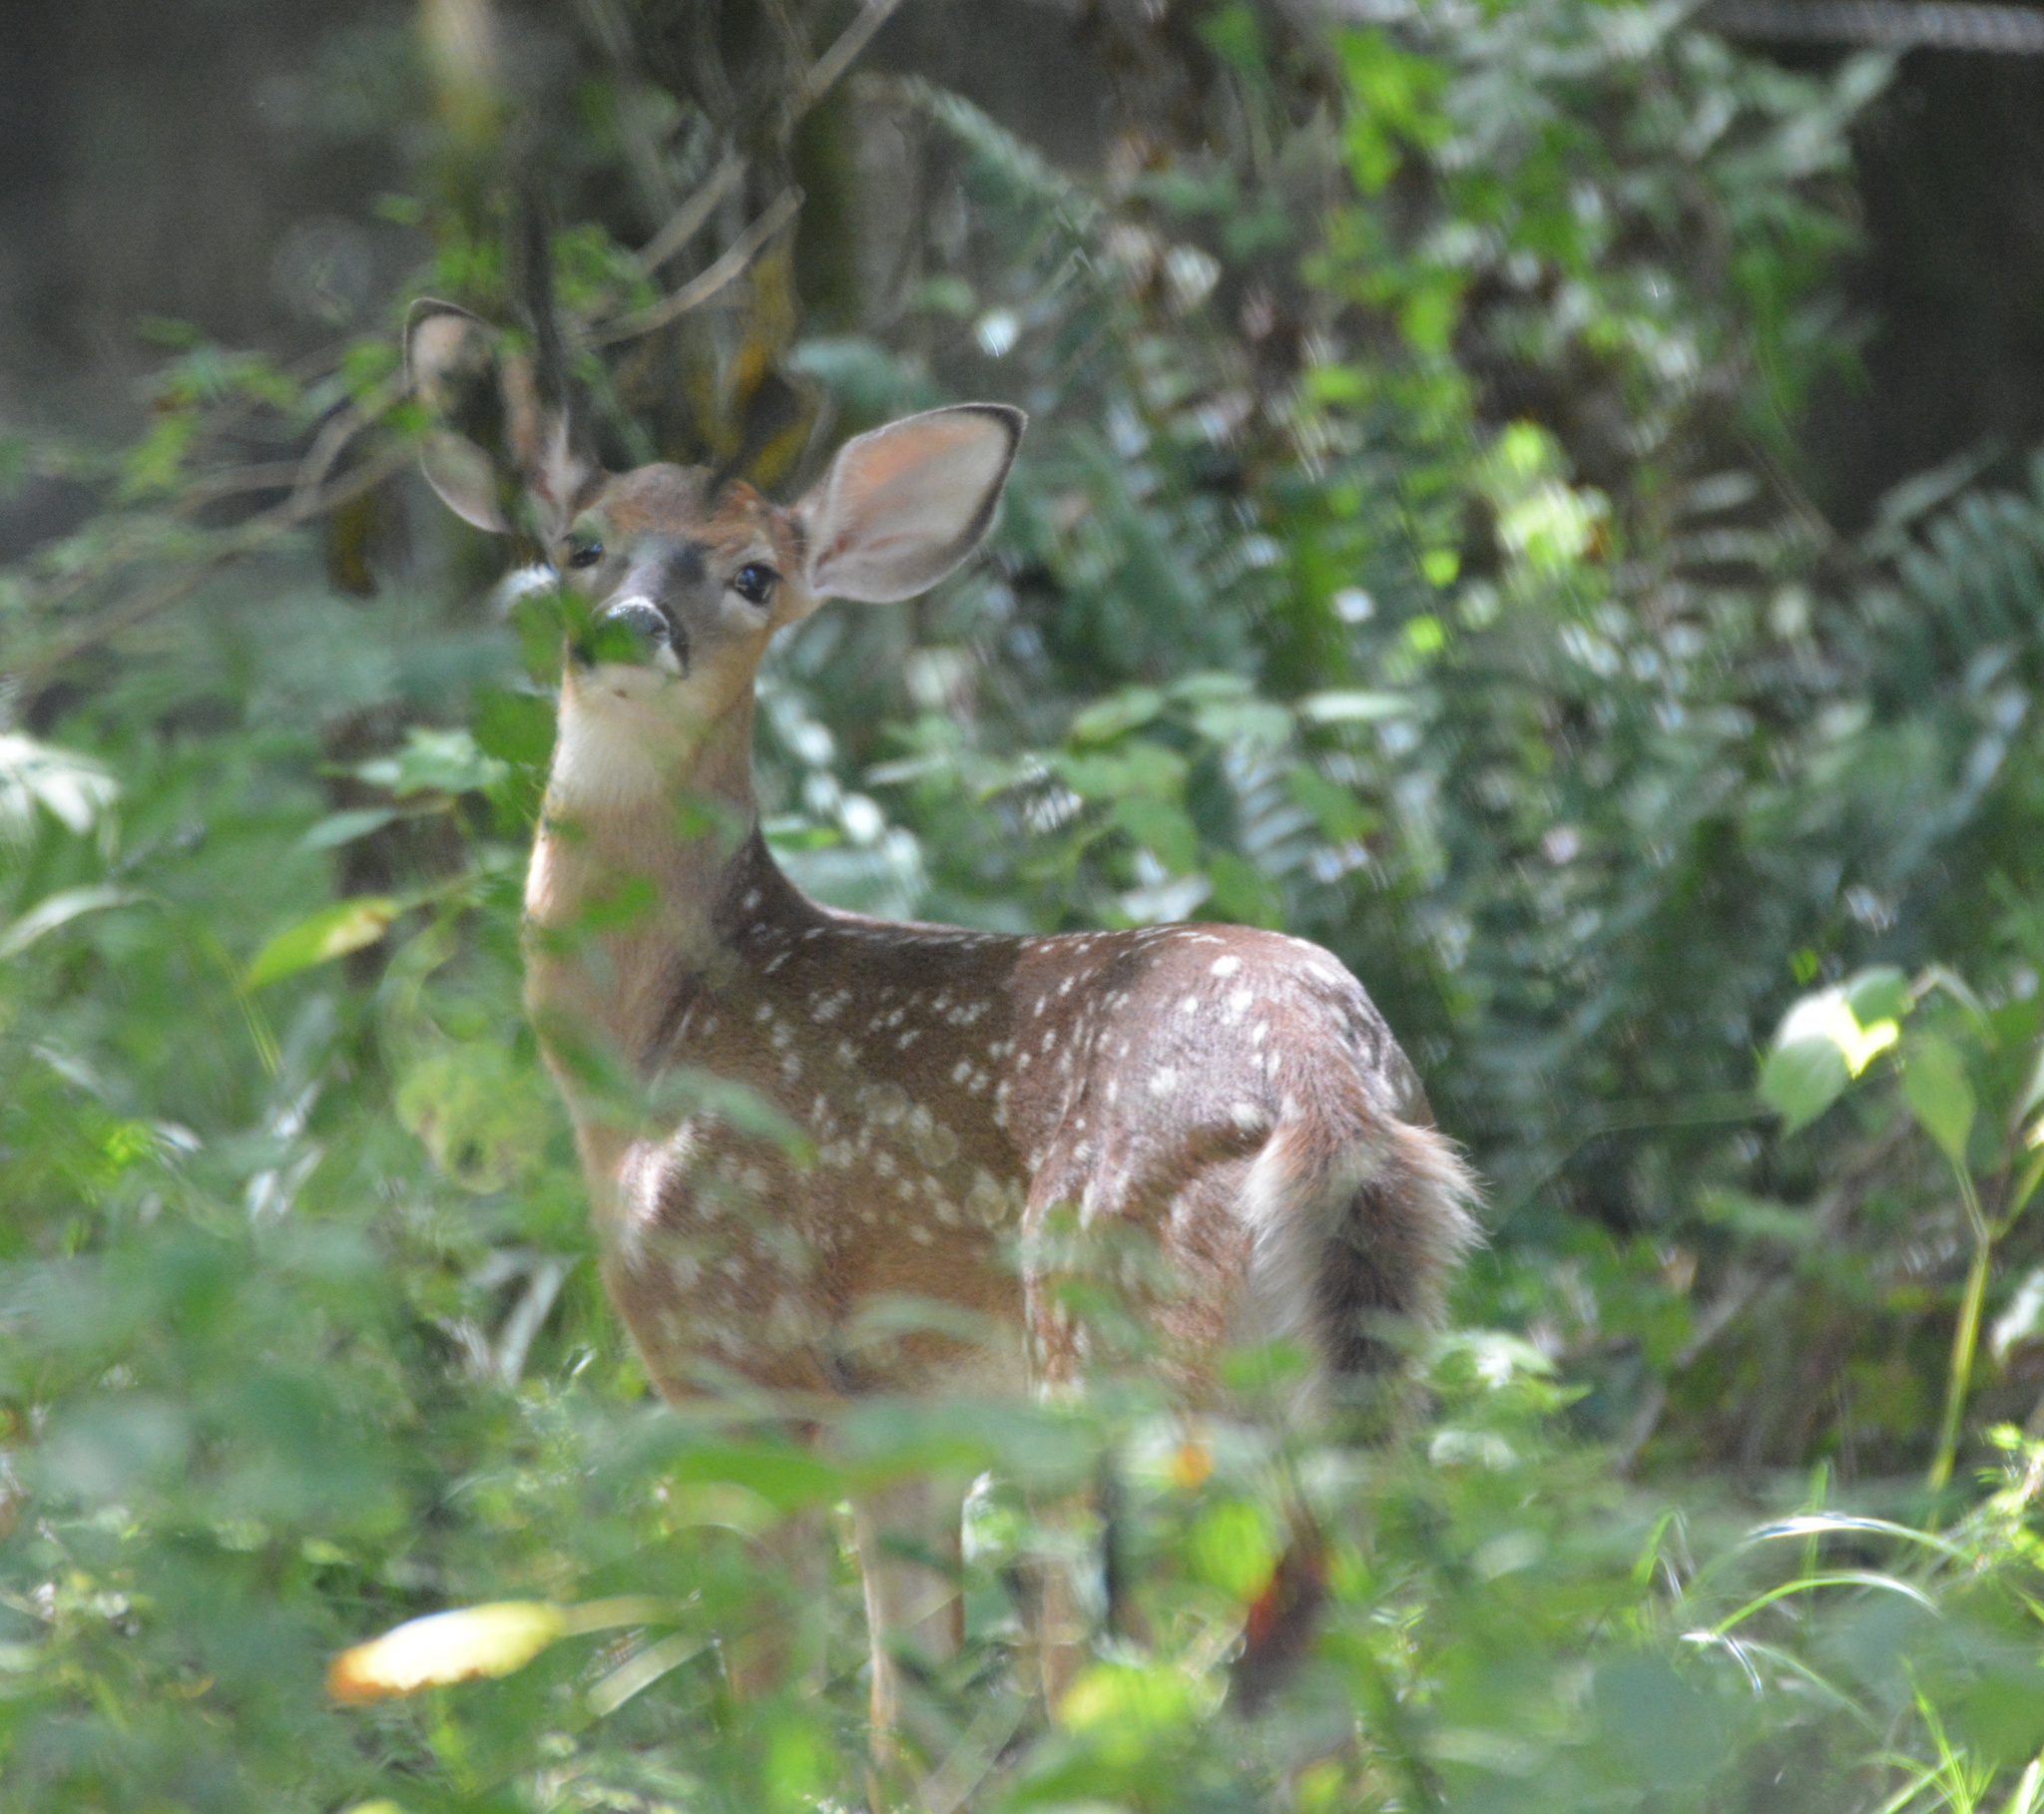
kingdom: Animalia
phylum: Chordata
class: Mammalia
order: Artiodactyla
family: Cervidae
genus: Odocoileus
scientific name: Odocoileus virginianus
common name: White-tailed deer
